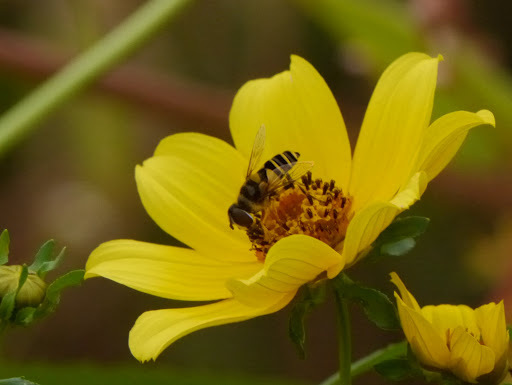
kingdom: Animalia
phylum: Arthropoda
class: Insecta
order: Diptera
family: Syrphidae
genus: Eristalis
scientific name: Eristalis transversa
